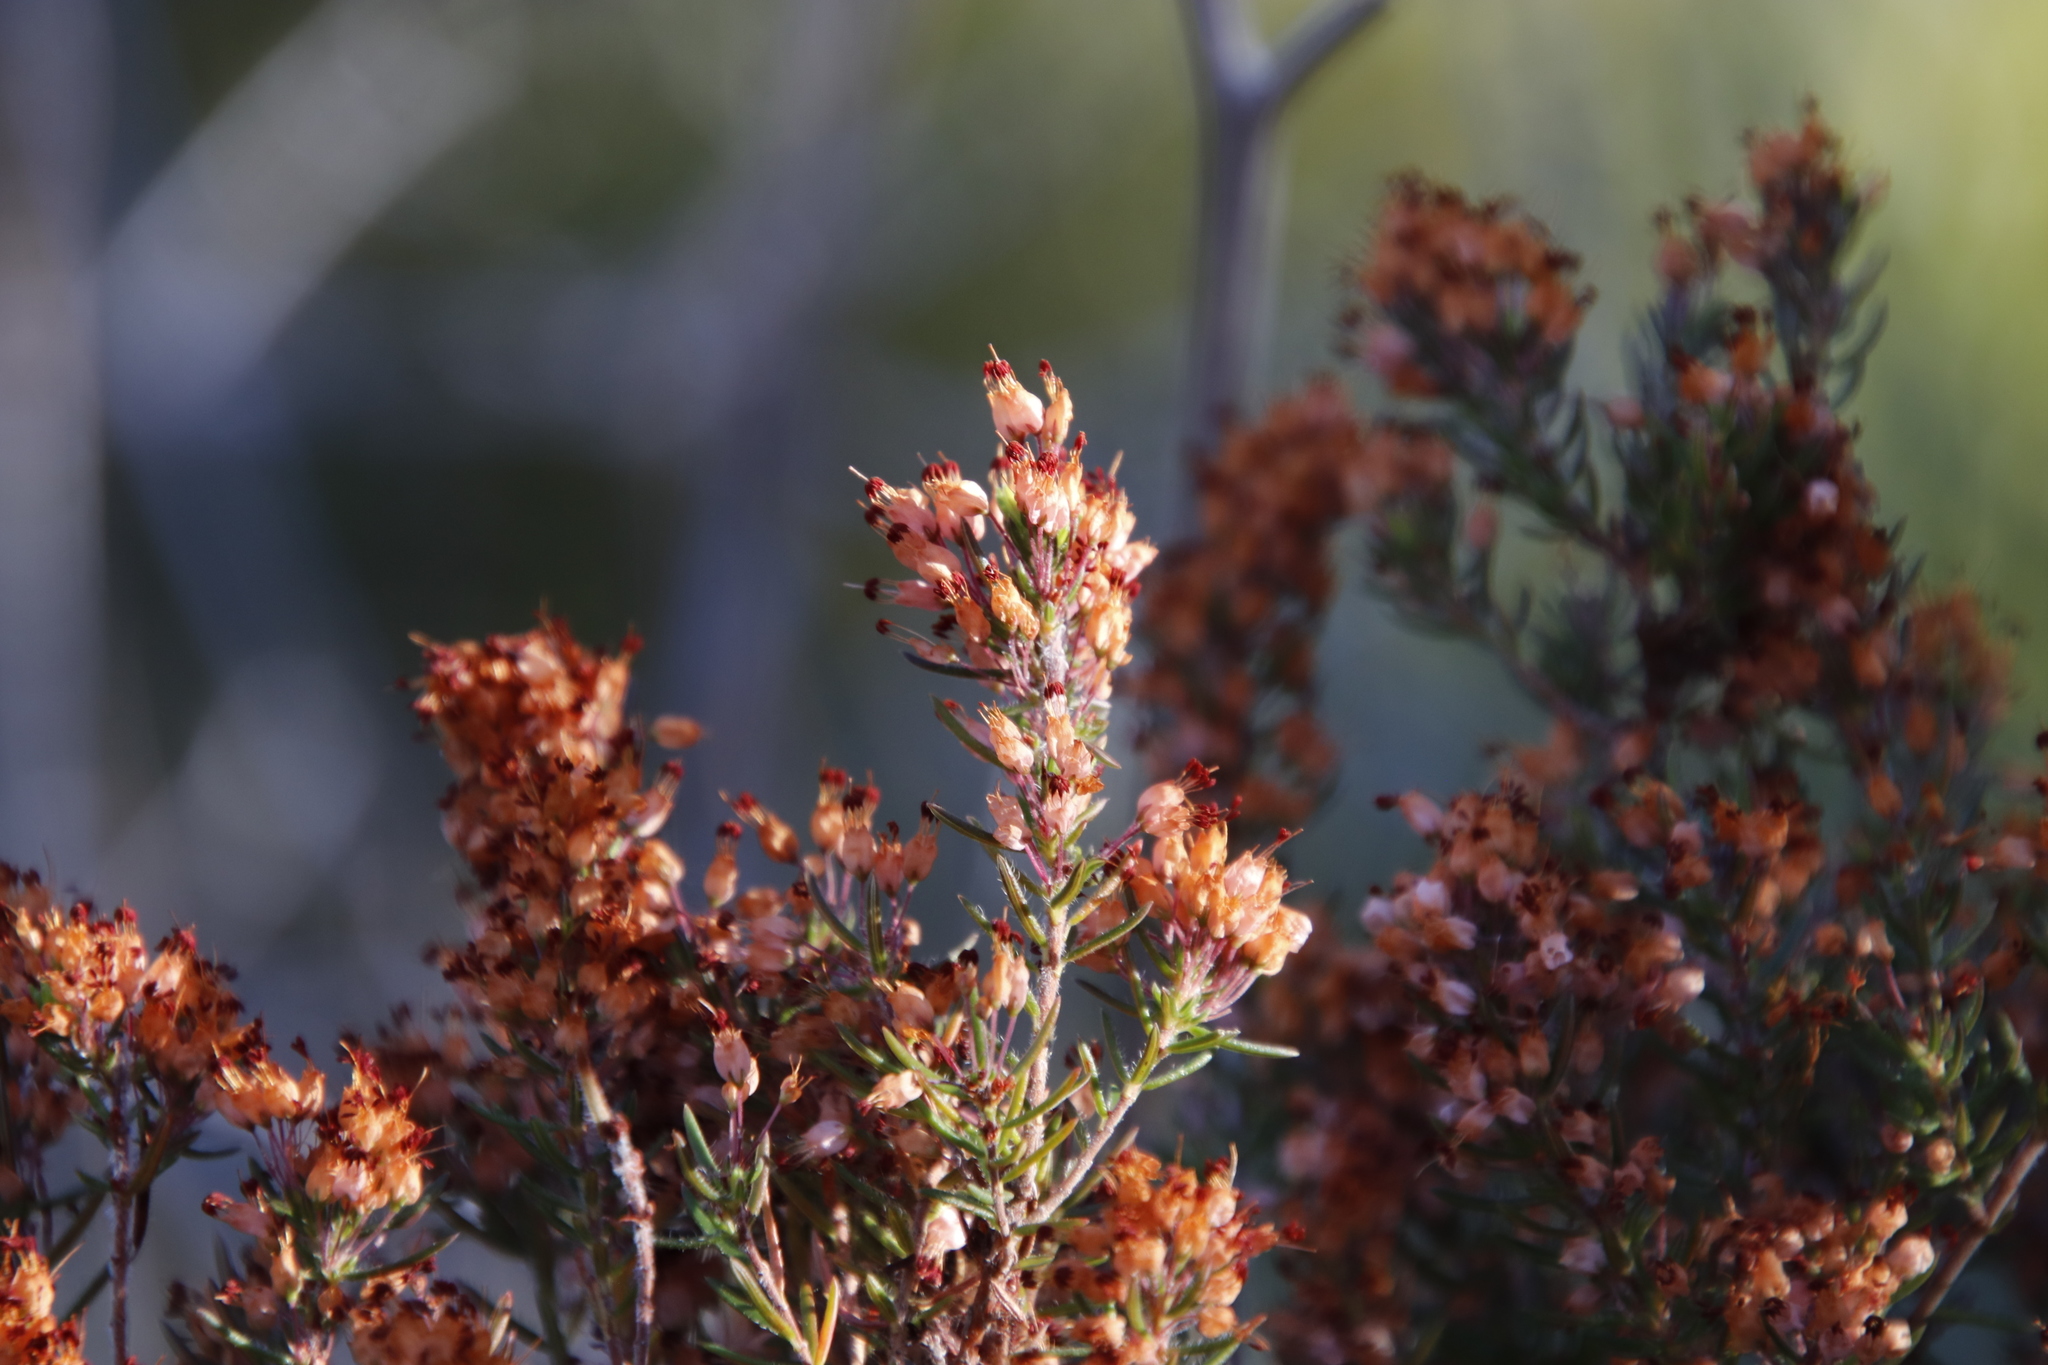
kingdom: Plantae
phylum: Tracheophyta
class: Magnoliopsida
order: Ericales
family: Ericaceae
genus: Erica
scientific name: Erica nudiflora
